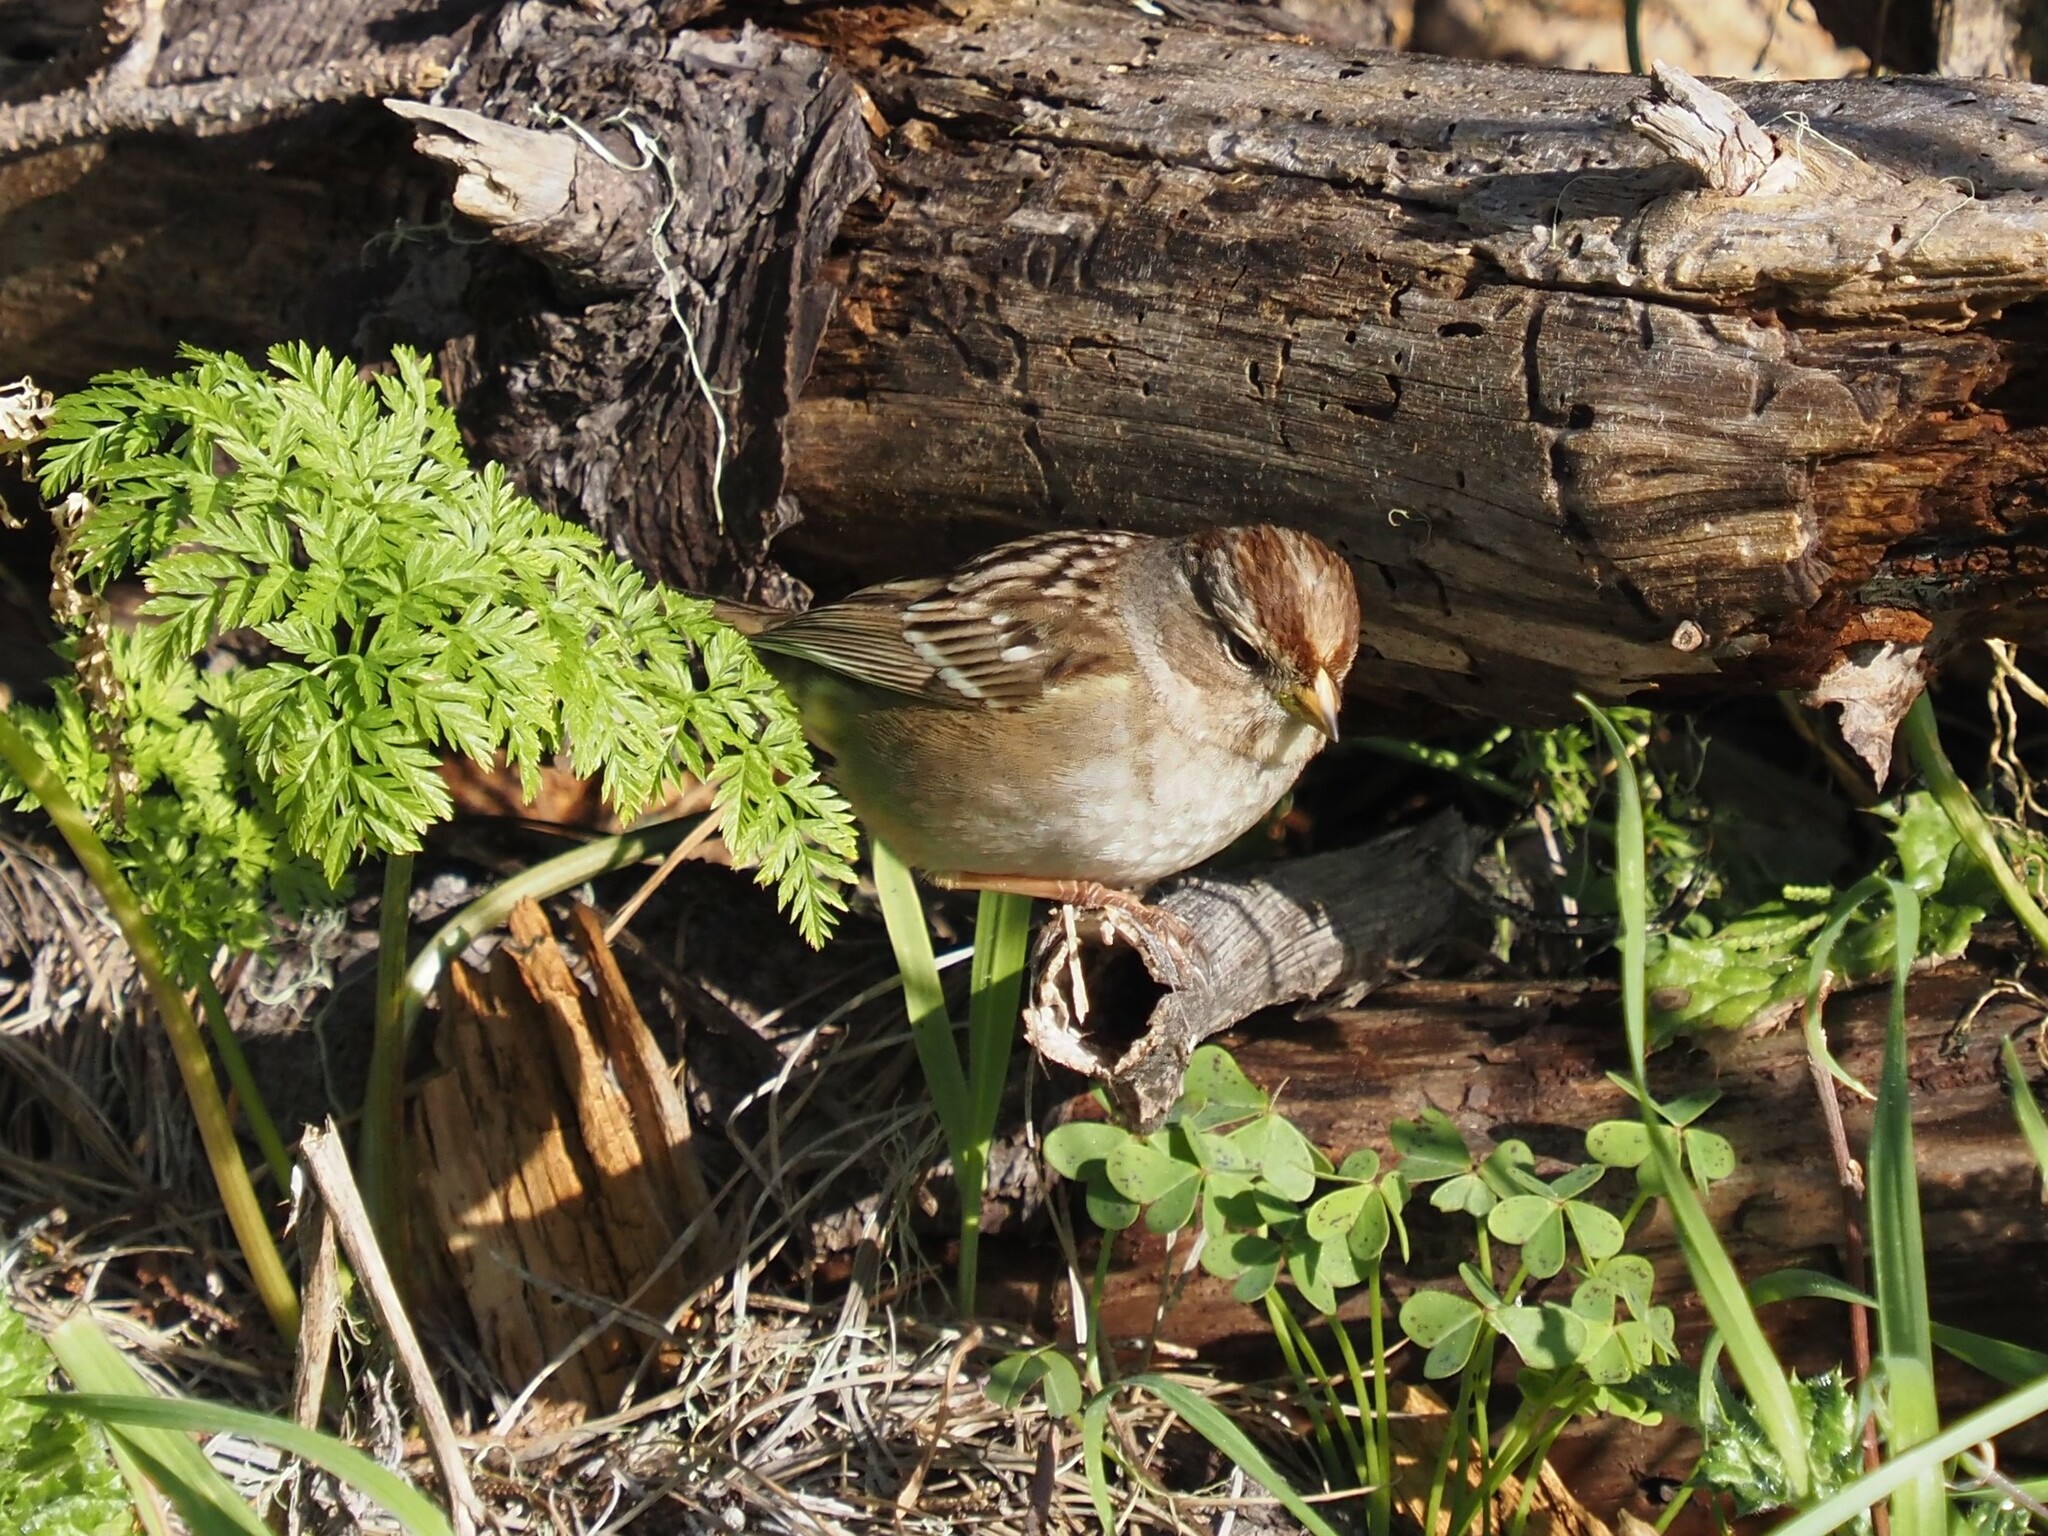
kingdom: Animalia
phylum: Chordata
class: Aves
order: Passeriformes
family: Passerellidae
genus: Zonotrichia
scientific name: Zonotrichia leucophrys
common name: White-crowned sparrow
